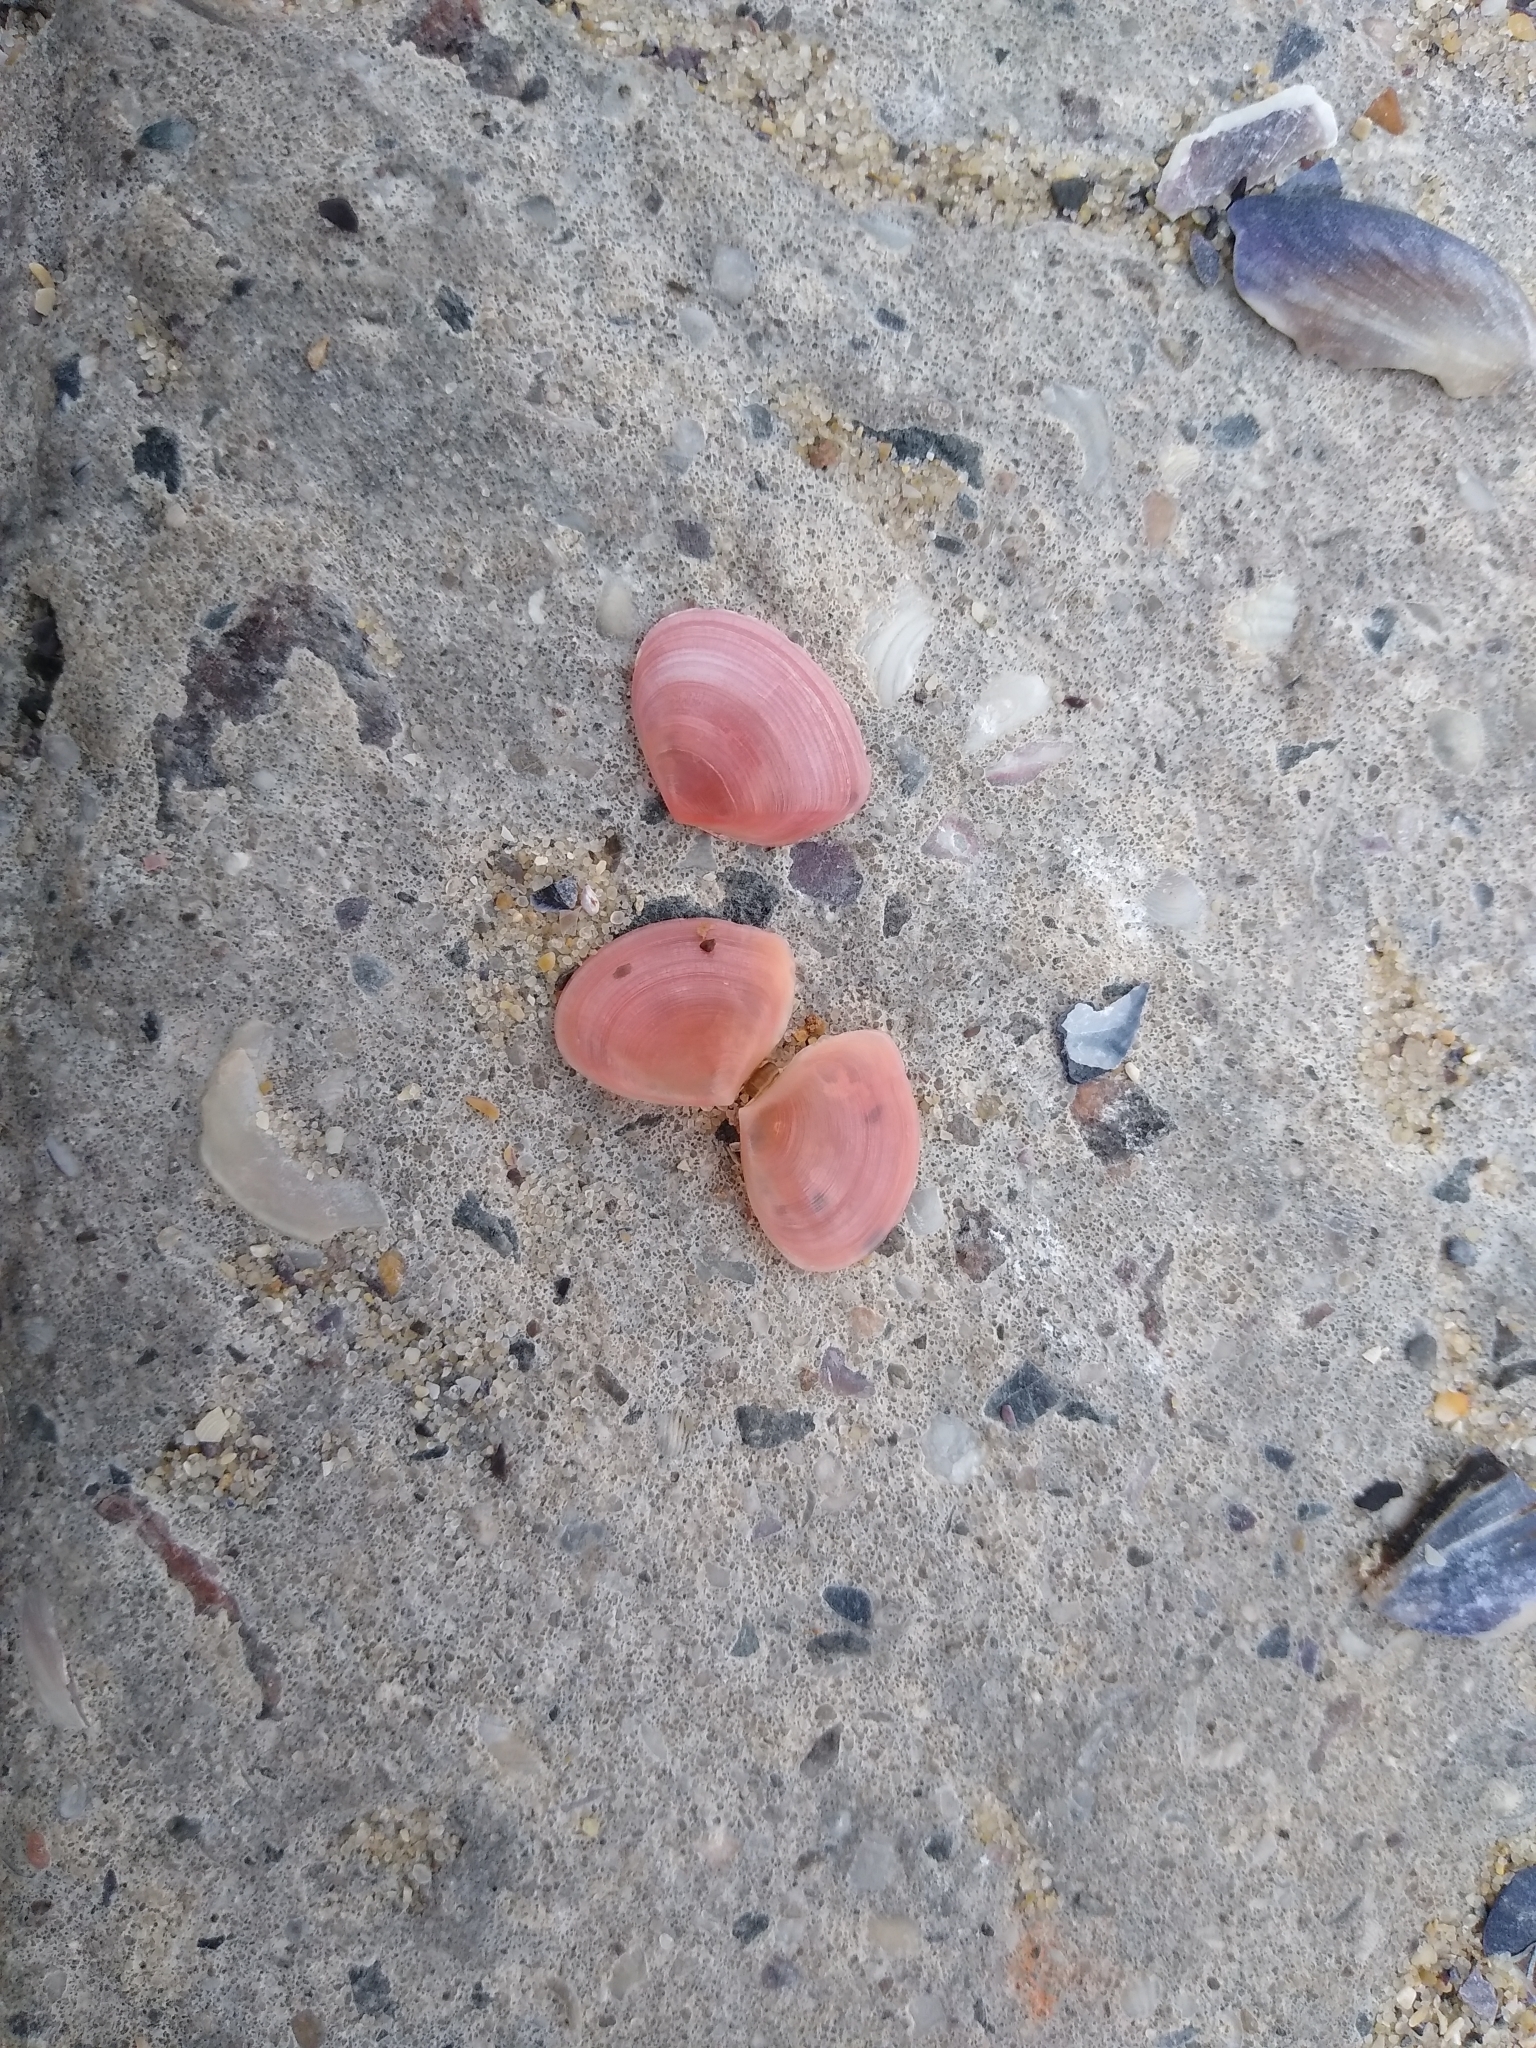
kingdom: Animalia
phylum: Mollusca
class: Bivalvia
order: Cardiida
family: Tellinidae
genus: Macomangulus
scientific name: Macomangulus tenuis
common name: Thin tellin
